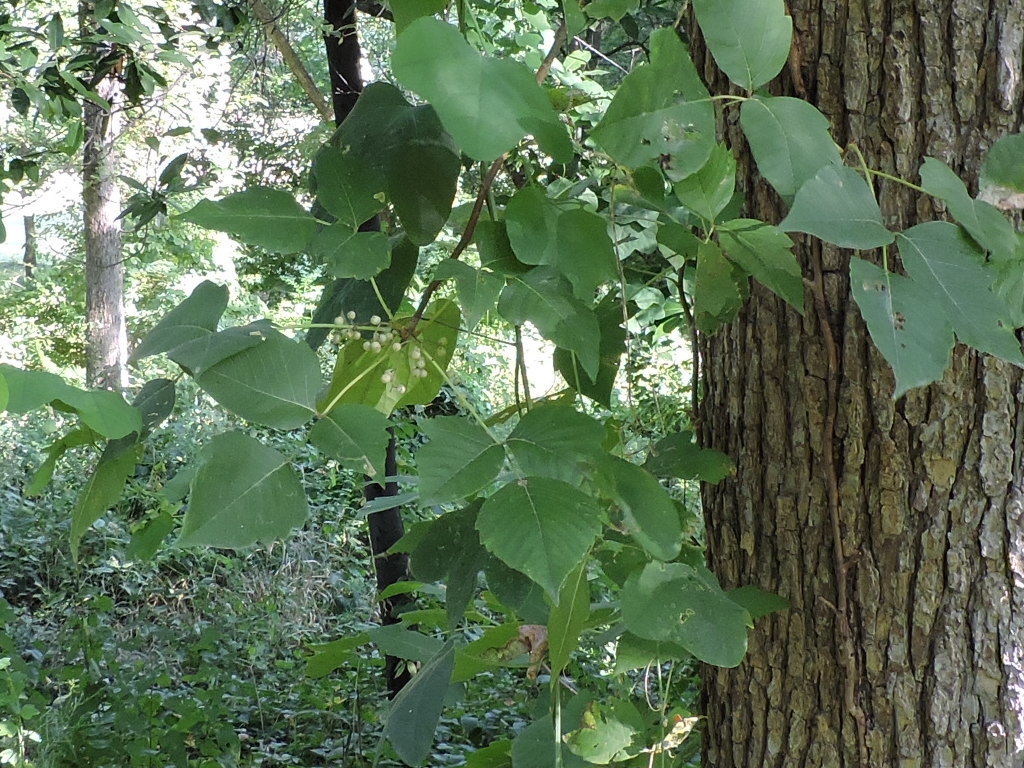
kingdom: Plantae
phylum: Tracheophyta
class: Magnoliopsida
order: Sapindales
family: Anacardiaceae
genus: Toxicodendron
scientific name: Toxicodendron radicans
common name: Poison ivy
